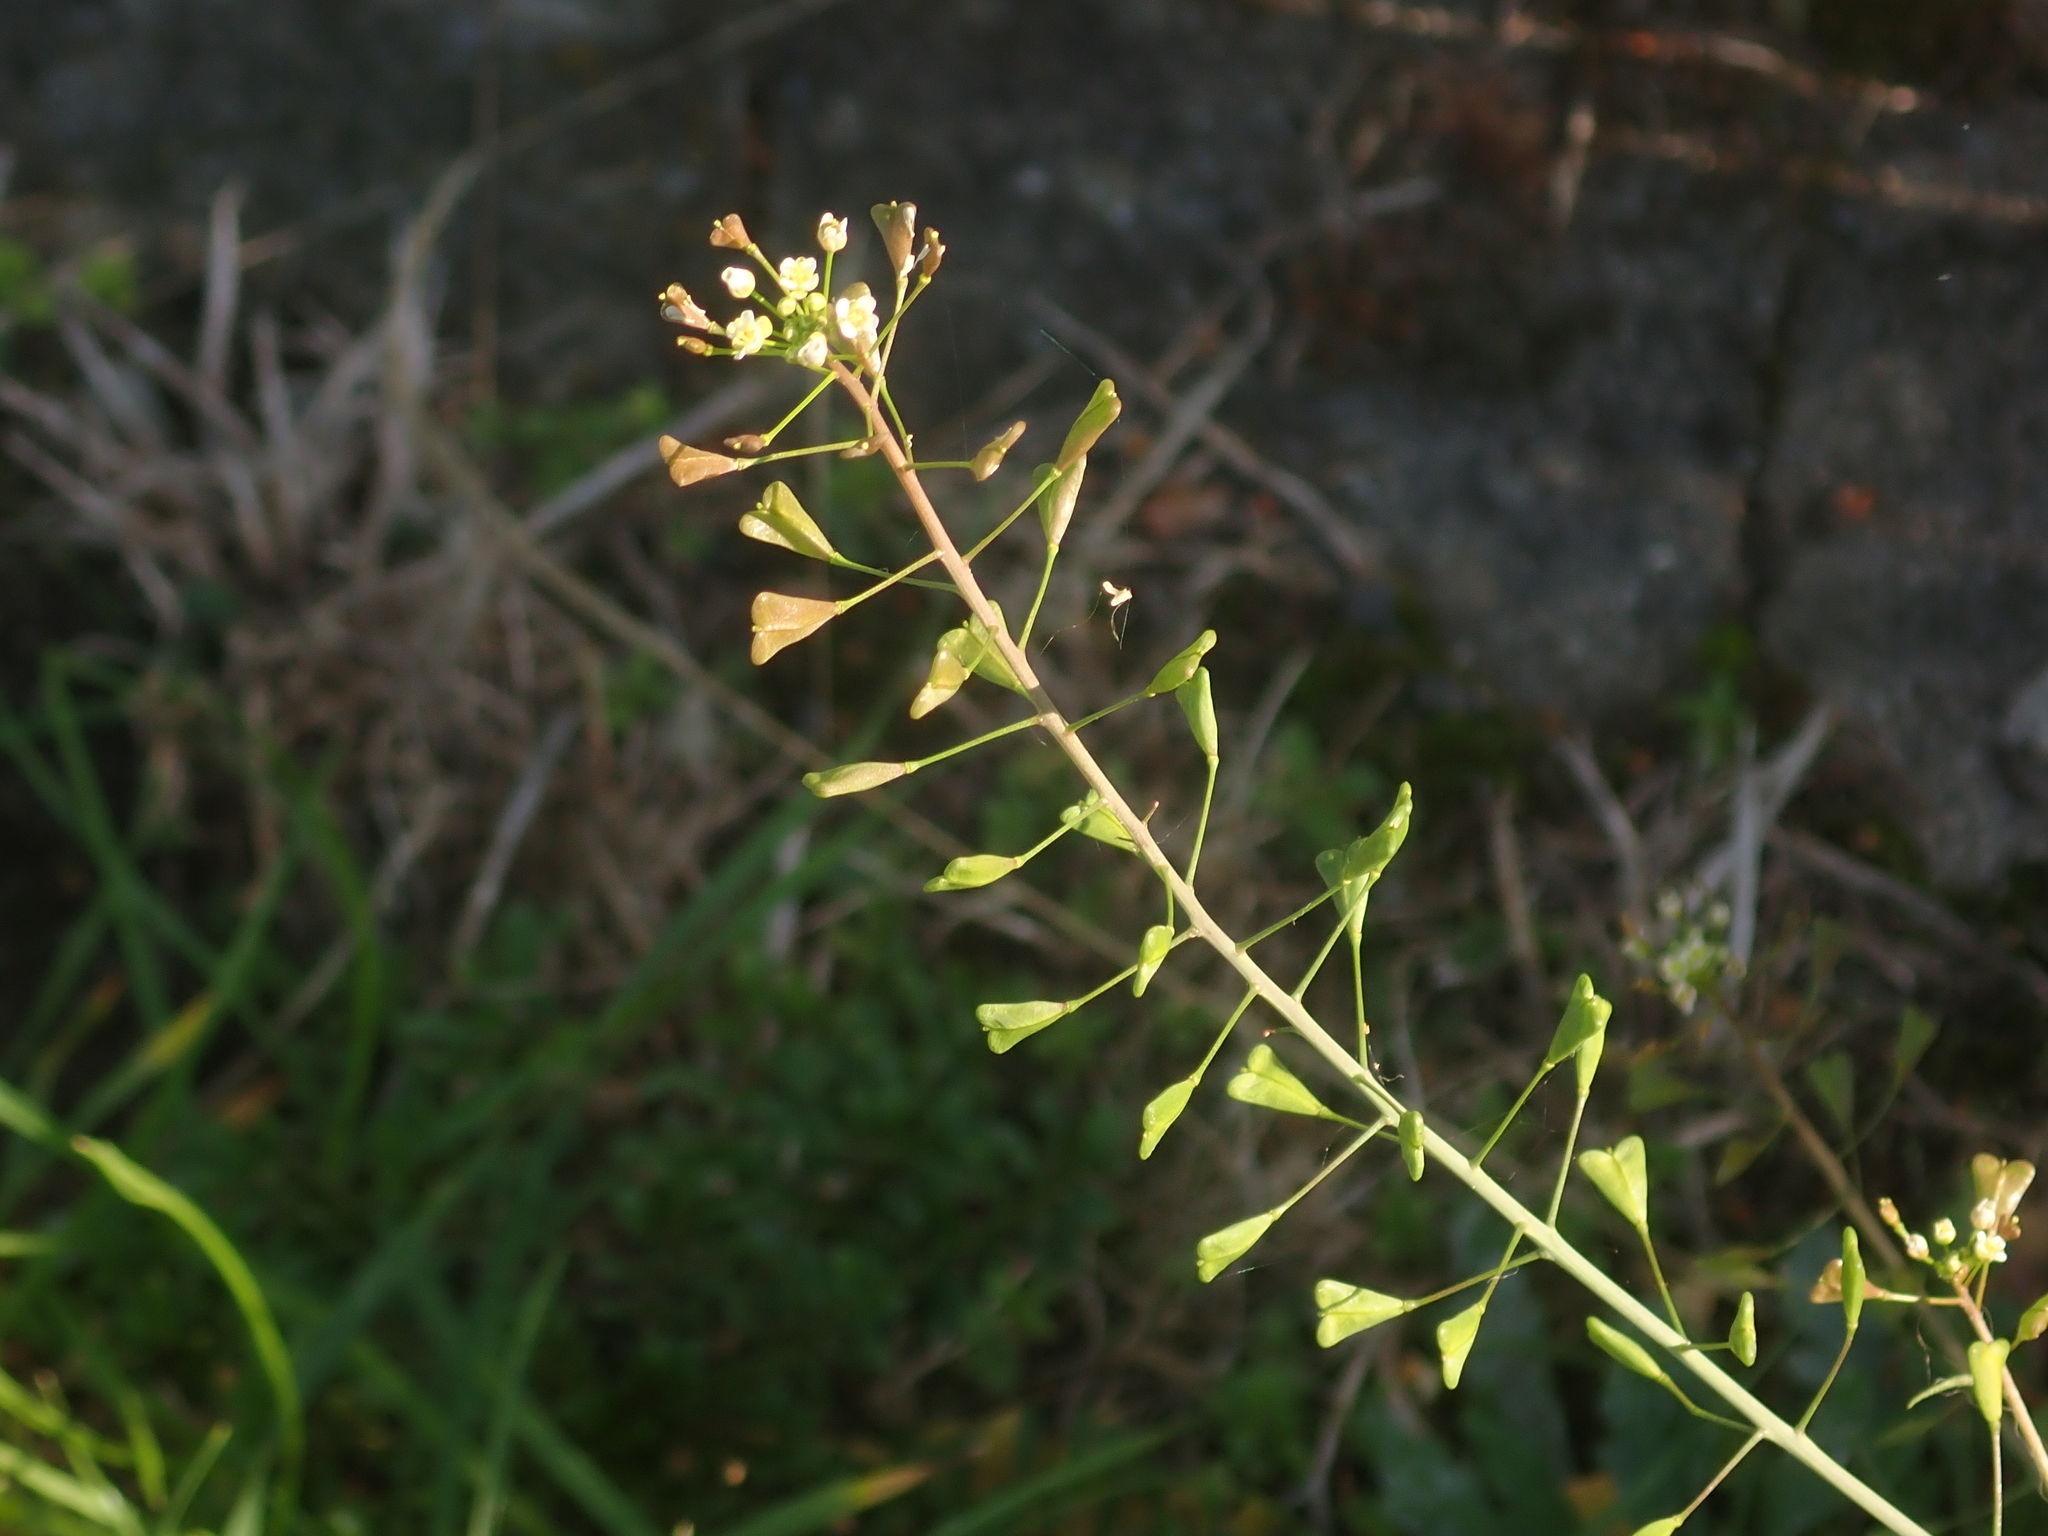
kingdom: Plantae
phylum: Tracheophyta
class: Magnoliopsida
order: Brassicales
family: Brassicaceae
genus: Capsella
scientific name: Capsella bursa-pastoris
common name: Shepherd's purse
